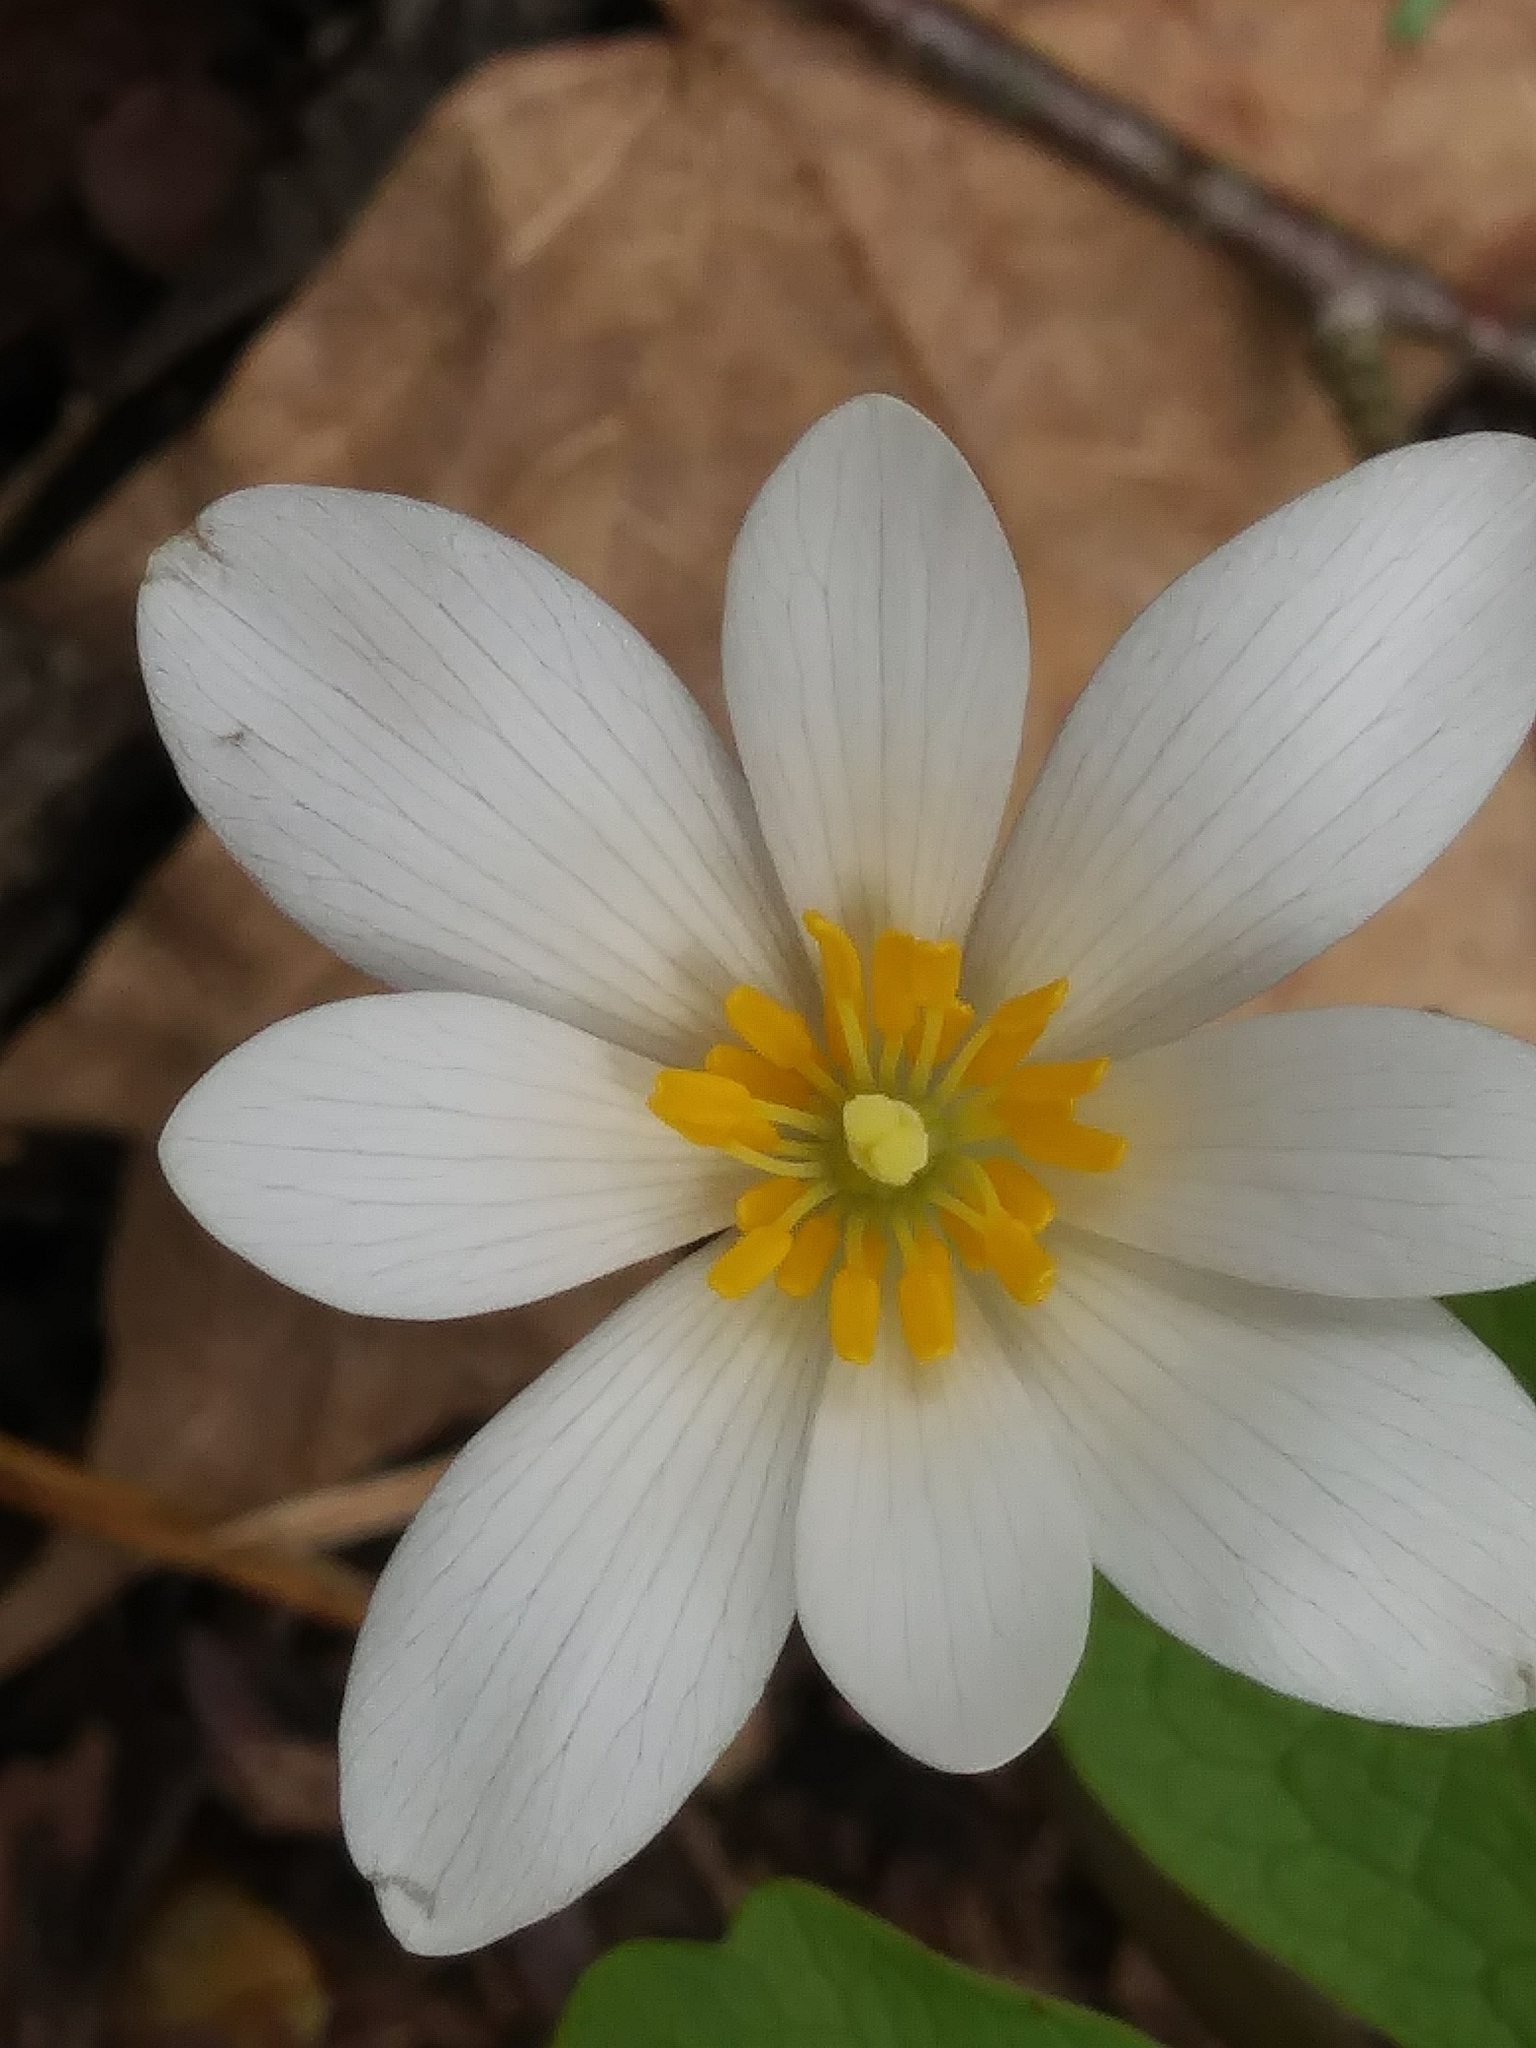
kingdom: Plantae
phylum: Tracheophyta
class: Magnoliopsida
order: Ranunculales
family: Papaveraceae
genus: Sanguinaria
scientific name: Sanguinaria canadensis
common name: Bloodroot
